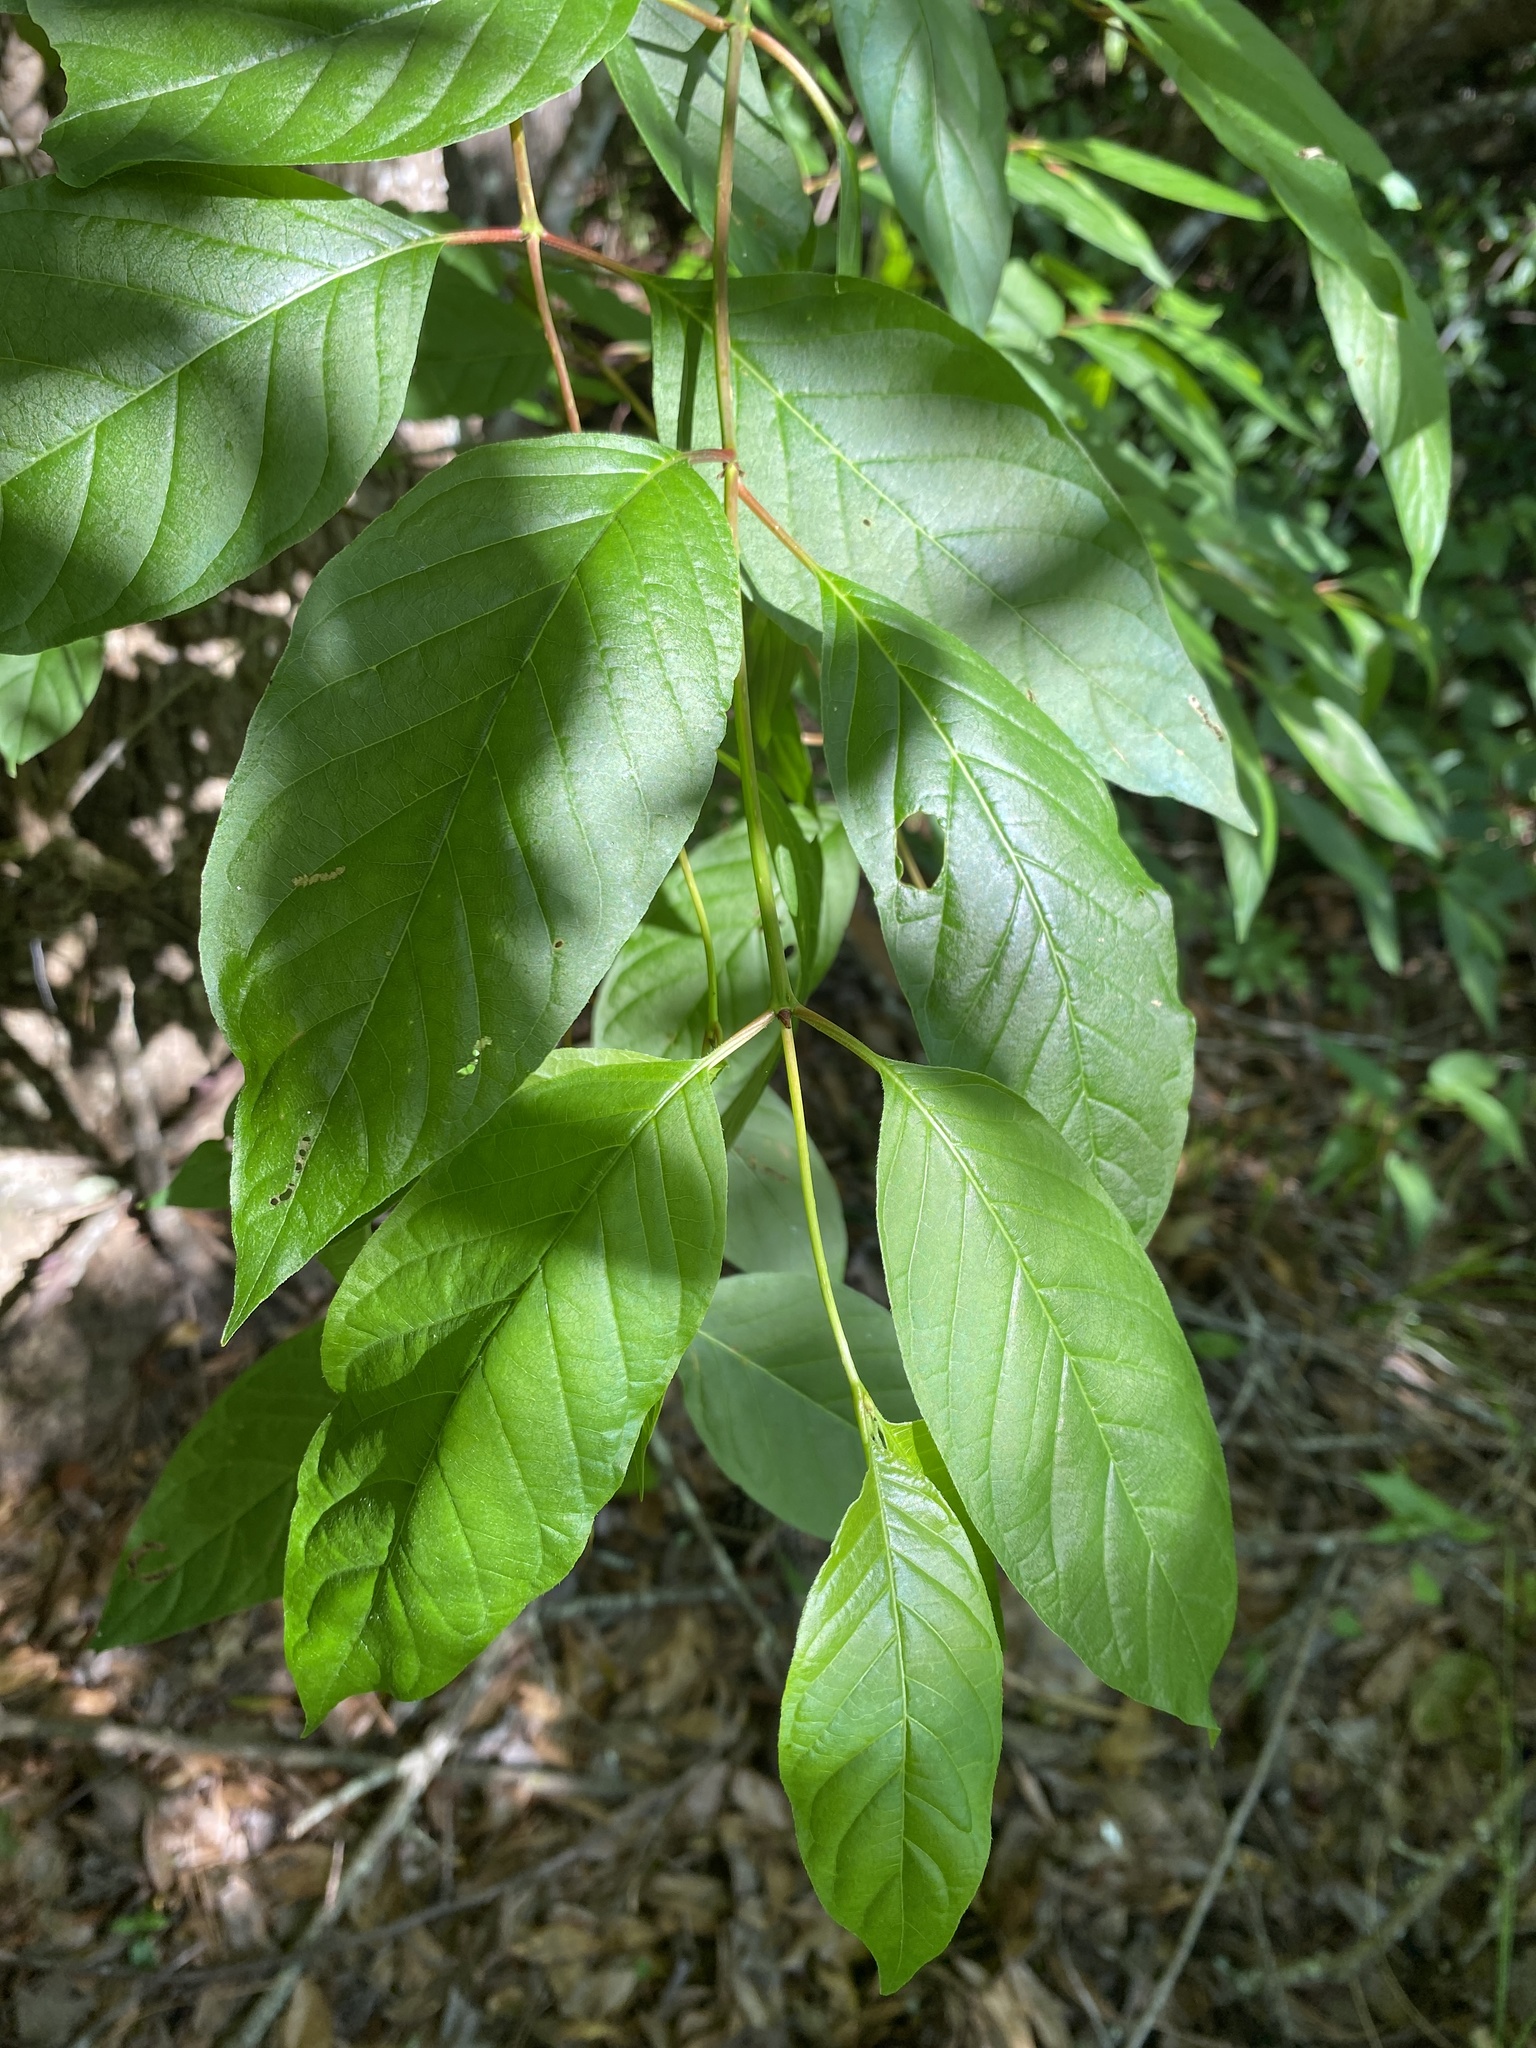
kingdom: Plantae
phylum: Tracheophyta
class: Magnoliopsida
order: Gentianales
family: Rubiaceae
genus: Cephalanthus
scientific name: Cephalanthus occidentalis
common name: Button-willow
